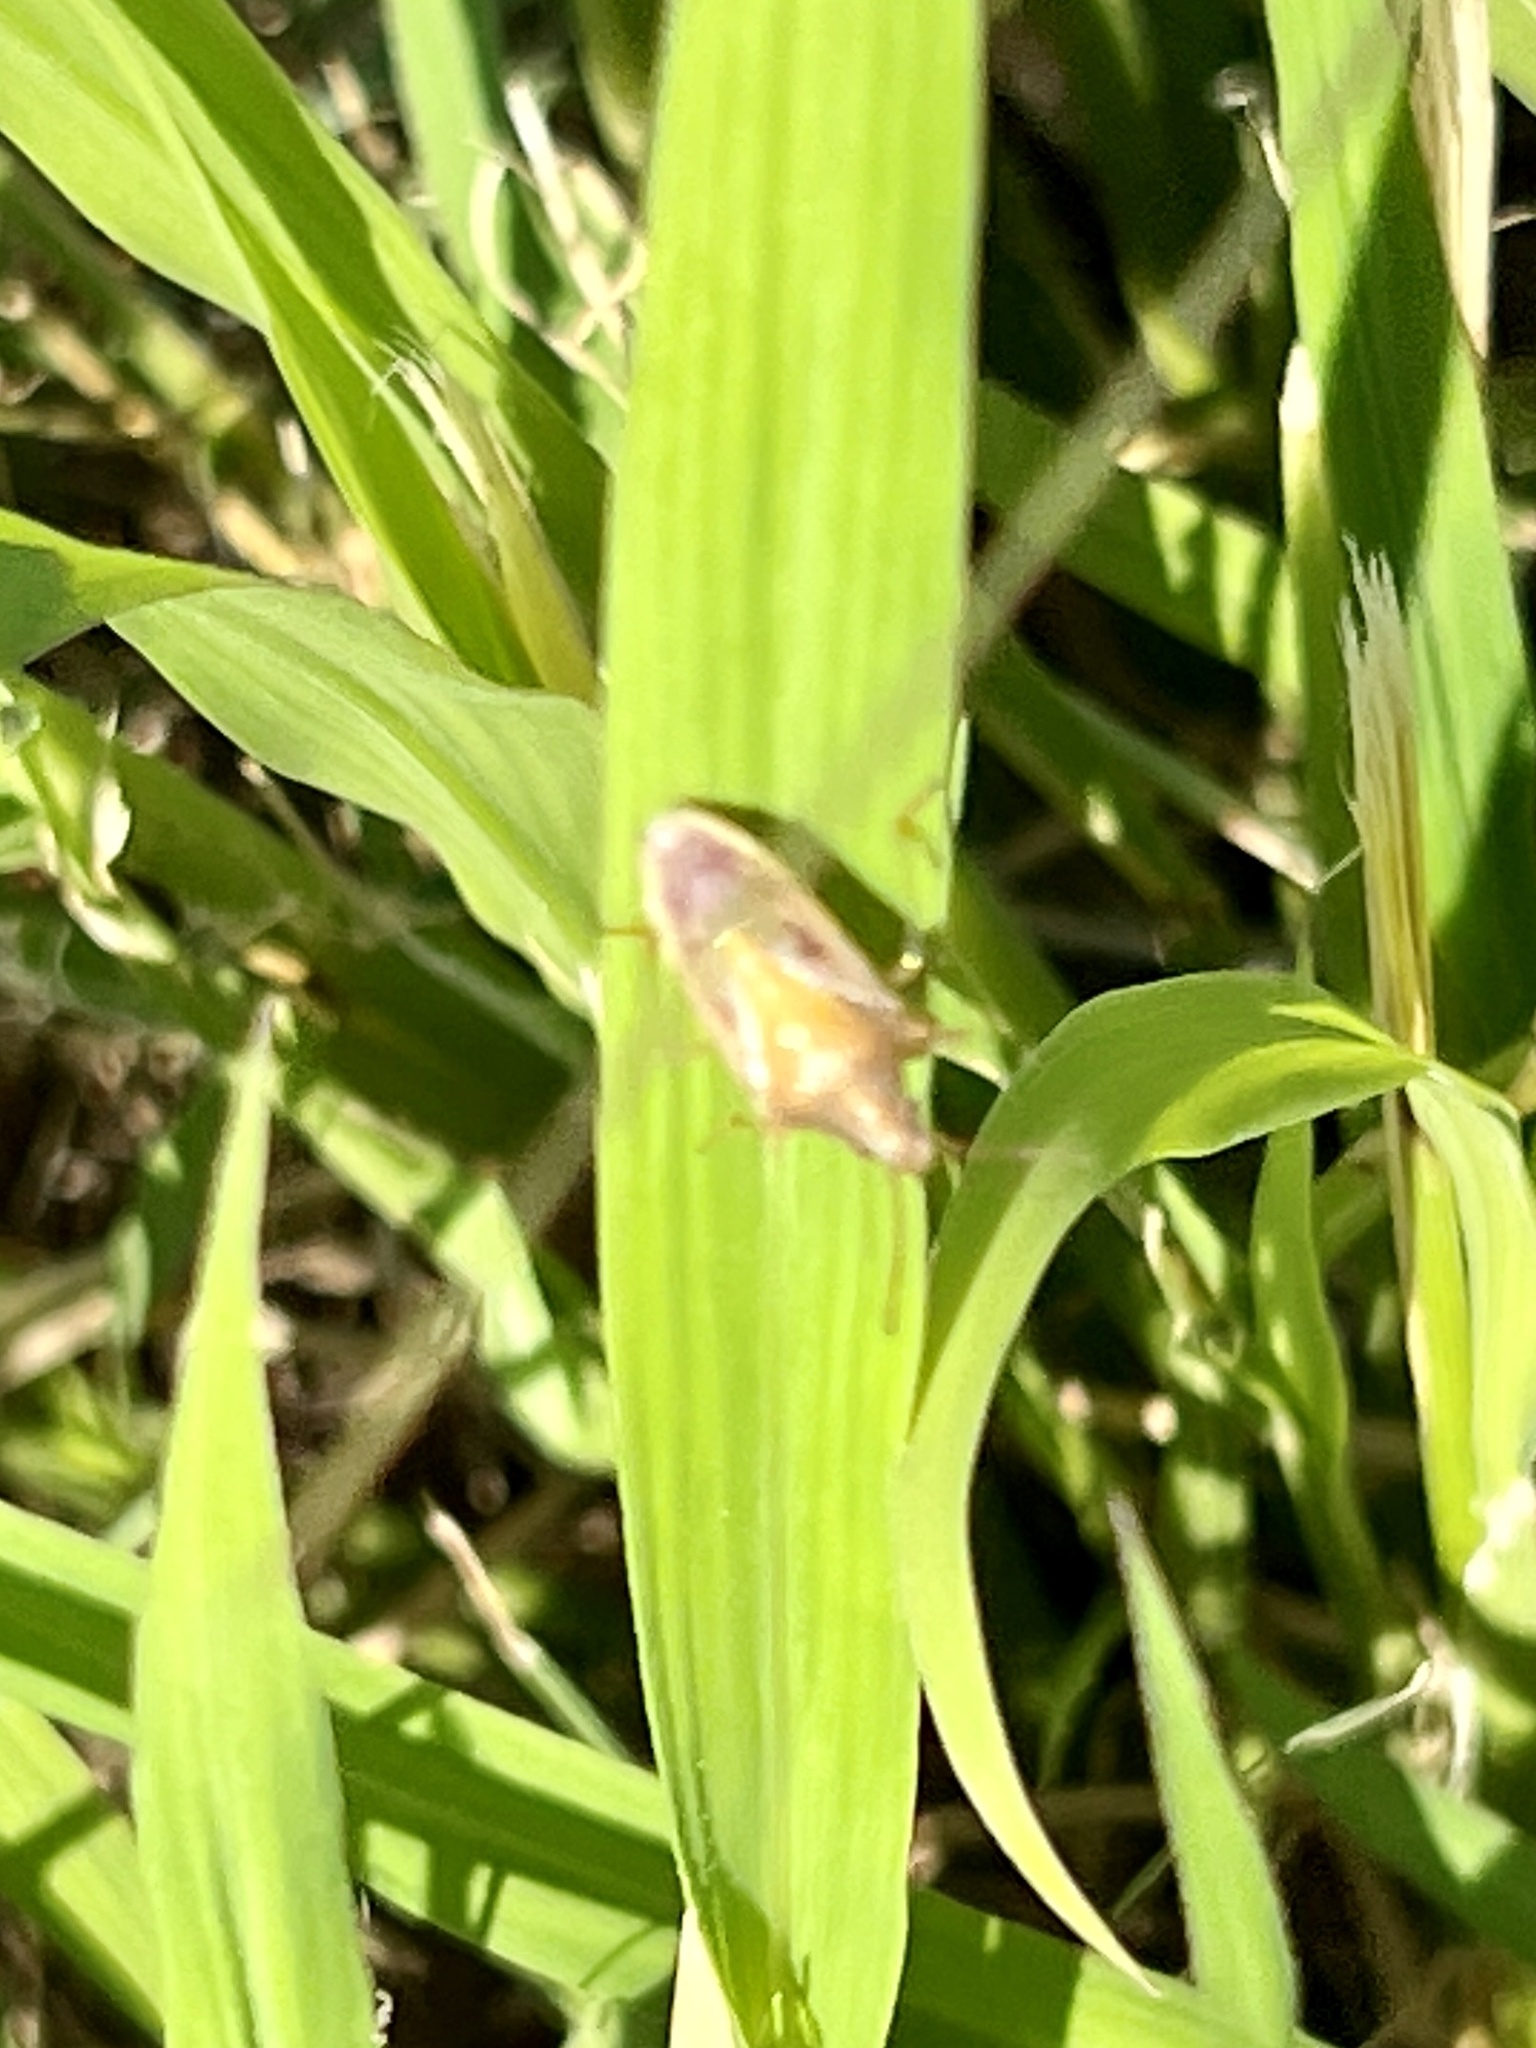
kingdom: Animalia
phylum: Arthropoda
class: Insecta
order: Hemiptera
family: Pentatomidae
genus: Oebalus
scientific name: Oebalus pugnax
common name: Rice stink bug
